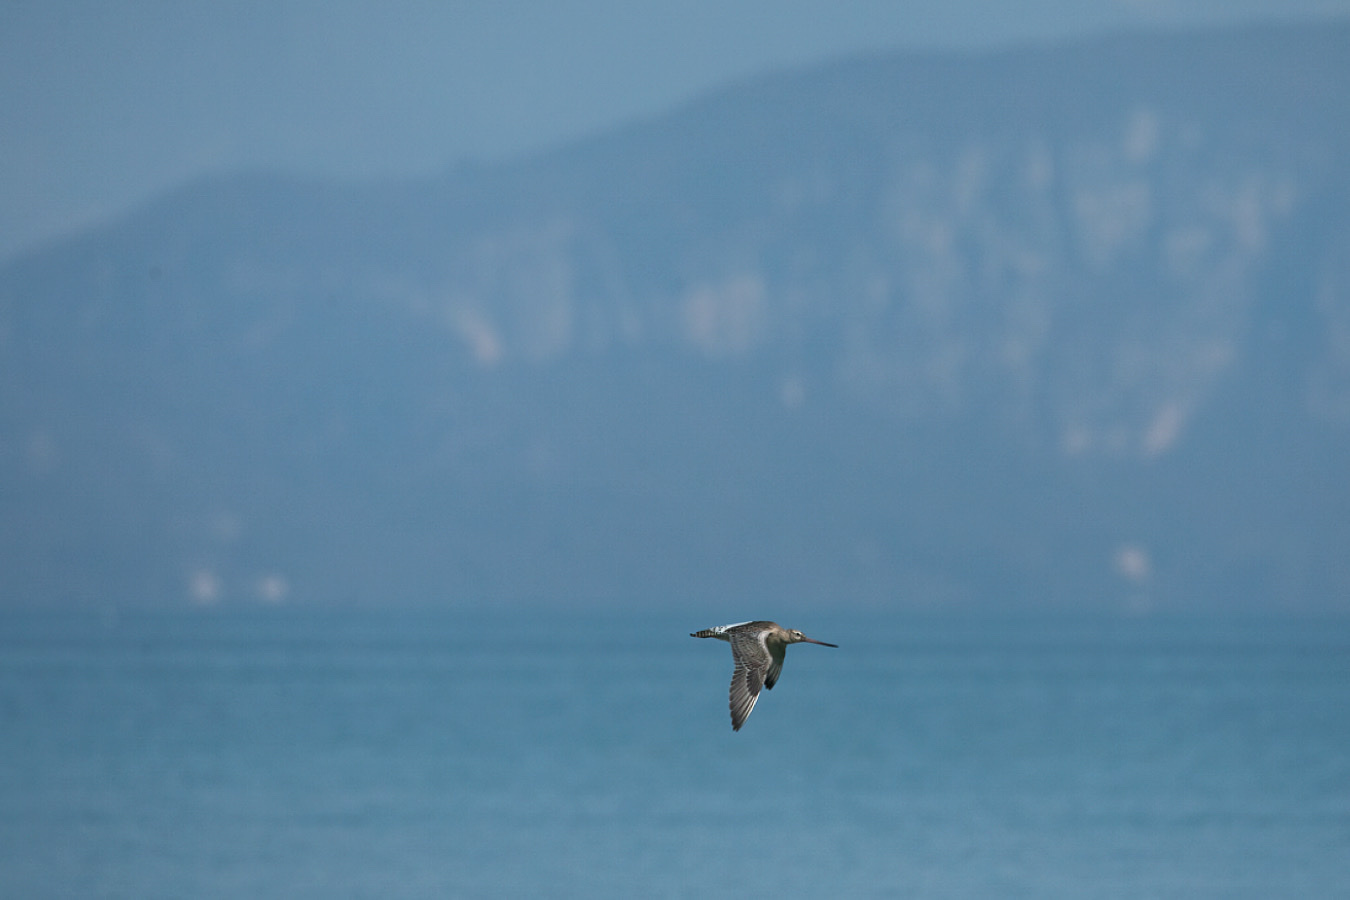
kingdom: Animalia
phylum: Chordata
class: Aves
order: Charadriiformes
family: Scolopacidae
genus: Limosa
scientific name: Limosa lapponica
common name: Bar-tailed godwit
